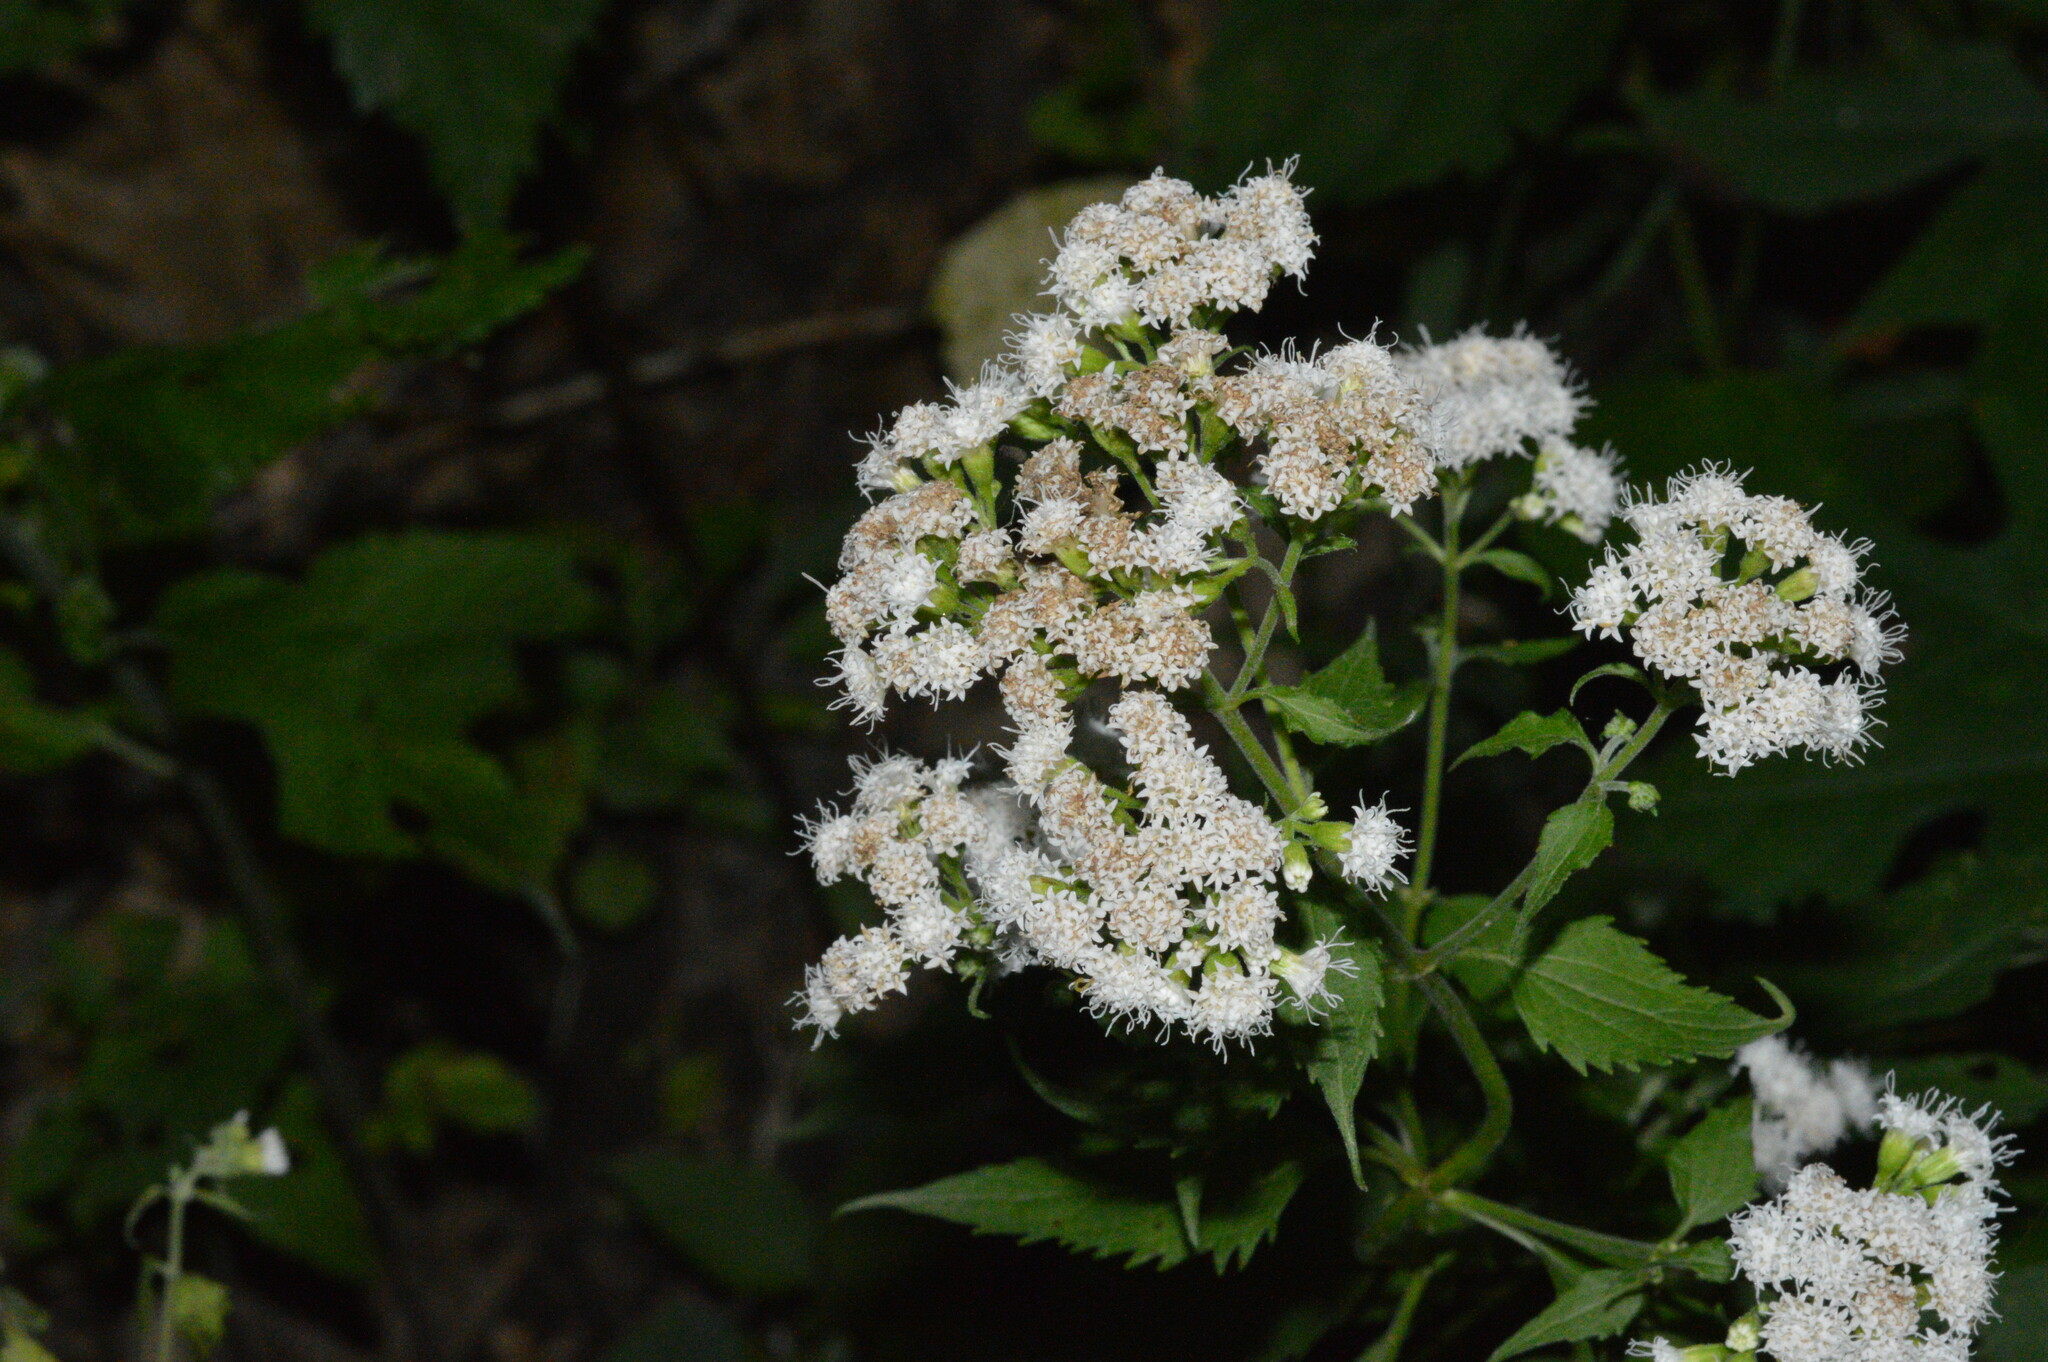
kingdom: Plantae
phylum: Tracheophyta
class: Magnoliopsida
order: Asterales
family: Asteraceae
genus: Ageratina
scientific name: Ageratina altissima
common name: White snakeroot
